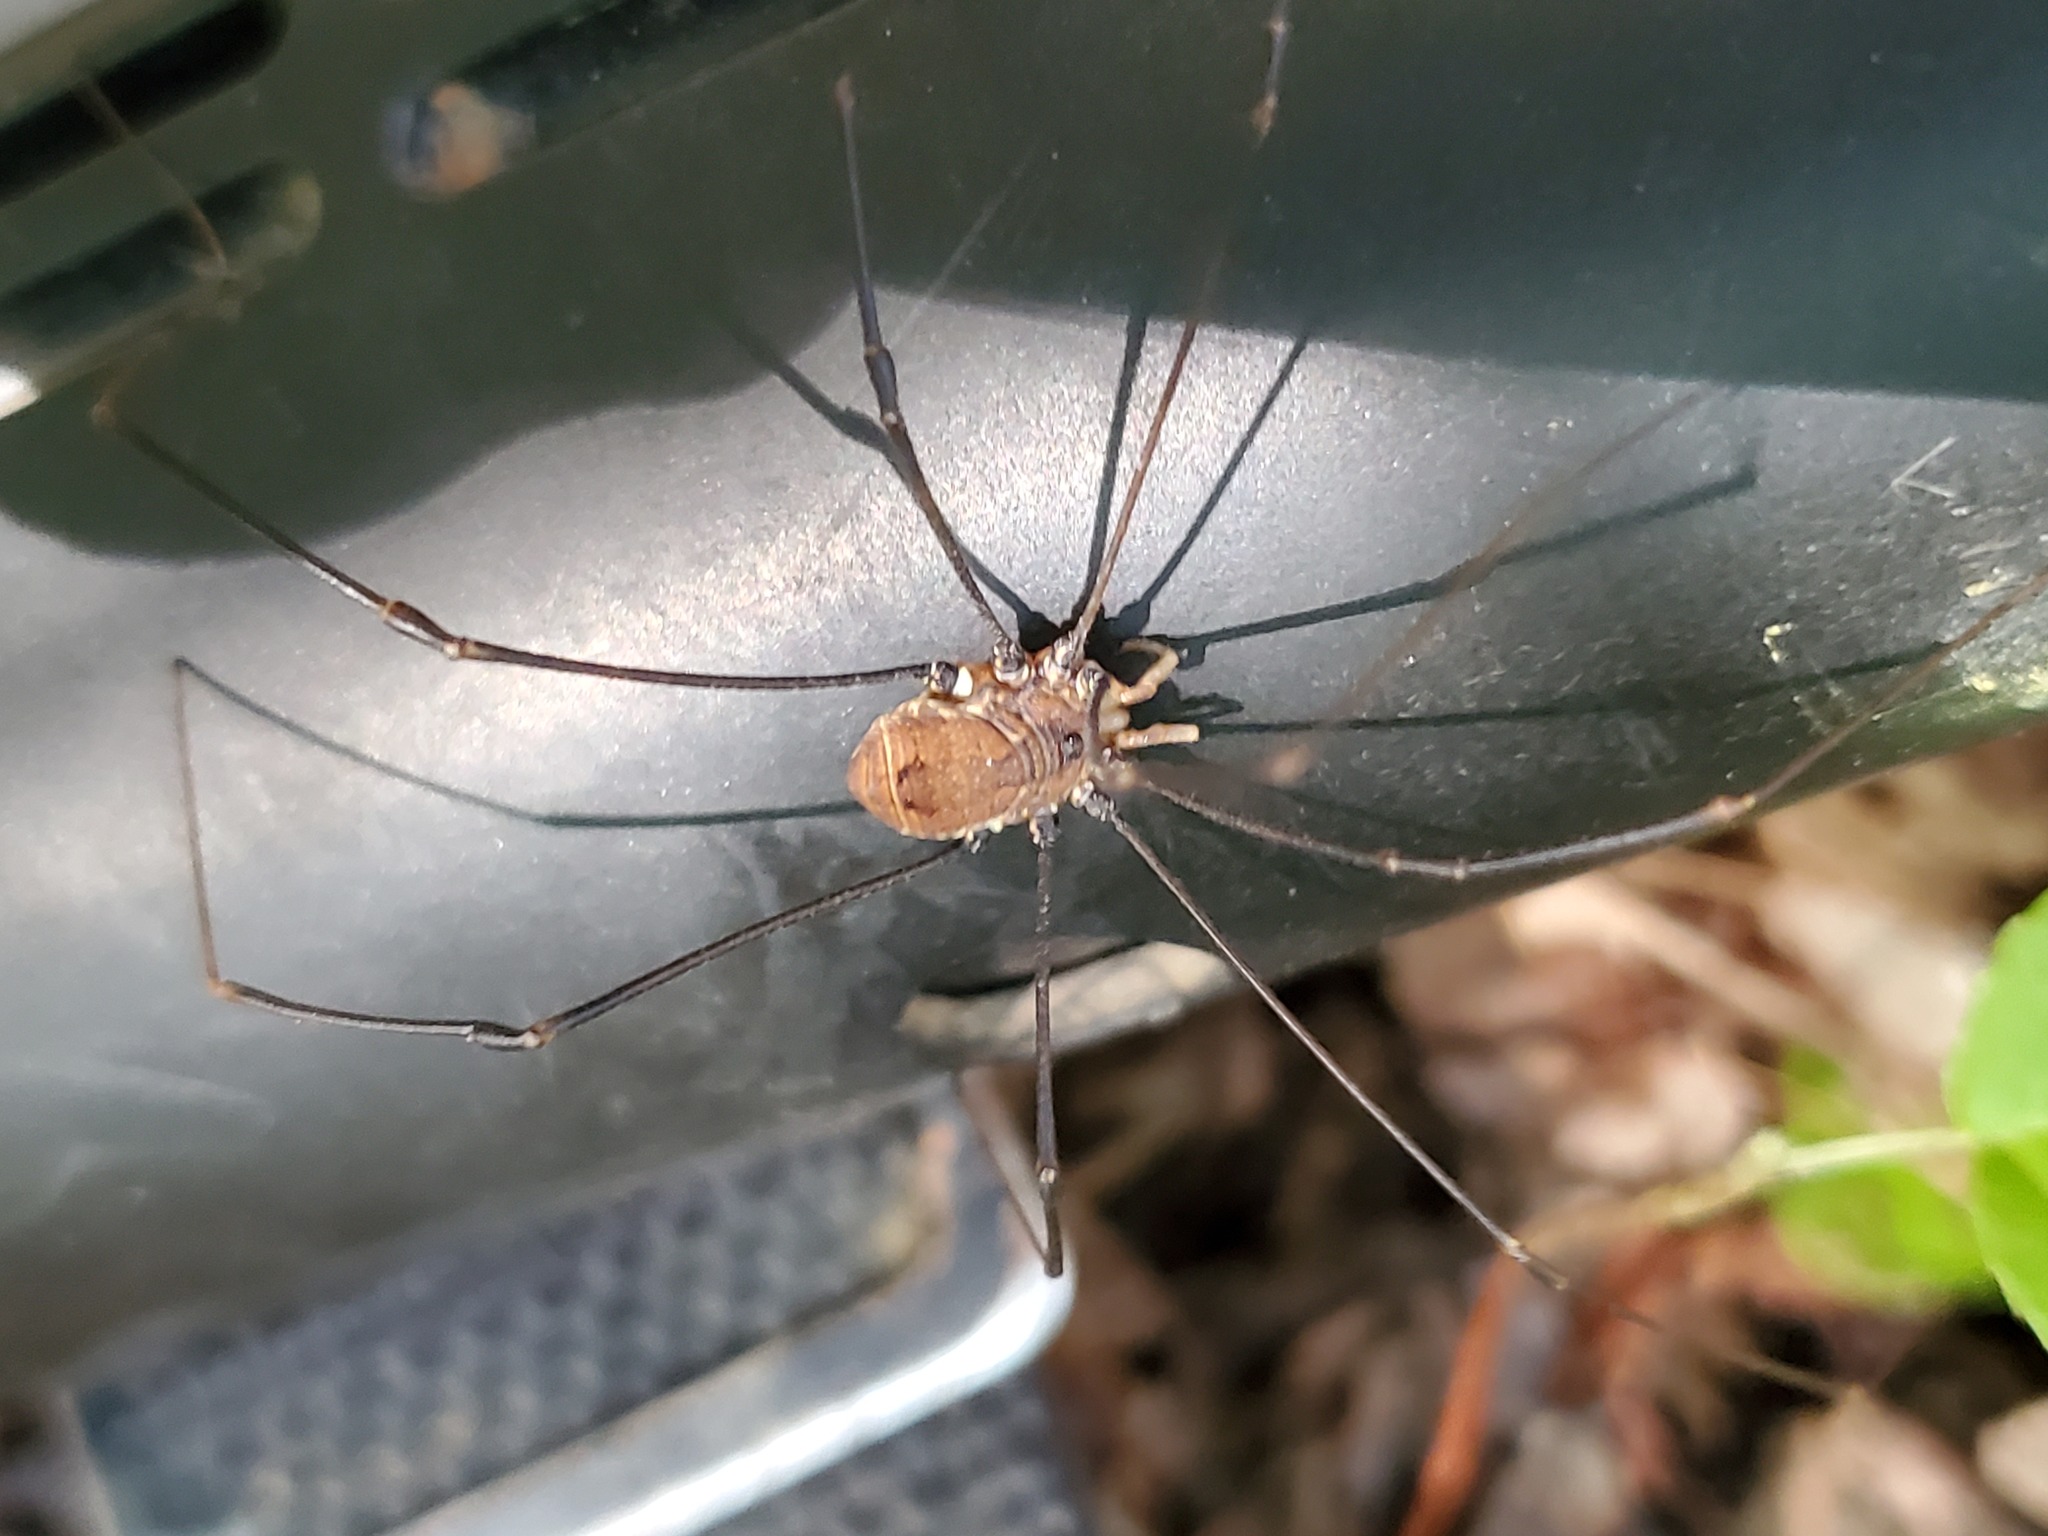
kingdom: Animalia
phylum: Arthropoda
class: Arachnida
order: Opiliones
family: Sclerosomatidae
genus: Leiobunum
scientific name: Leiobunum verrucosum
